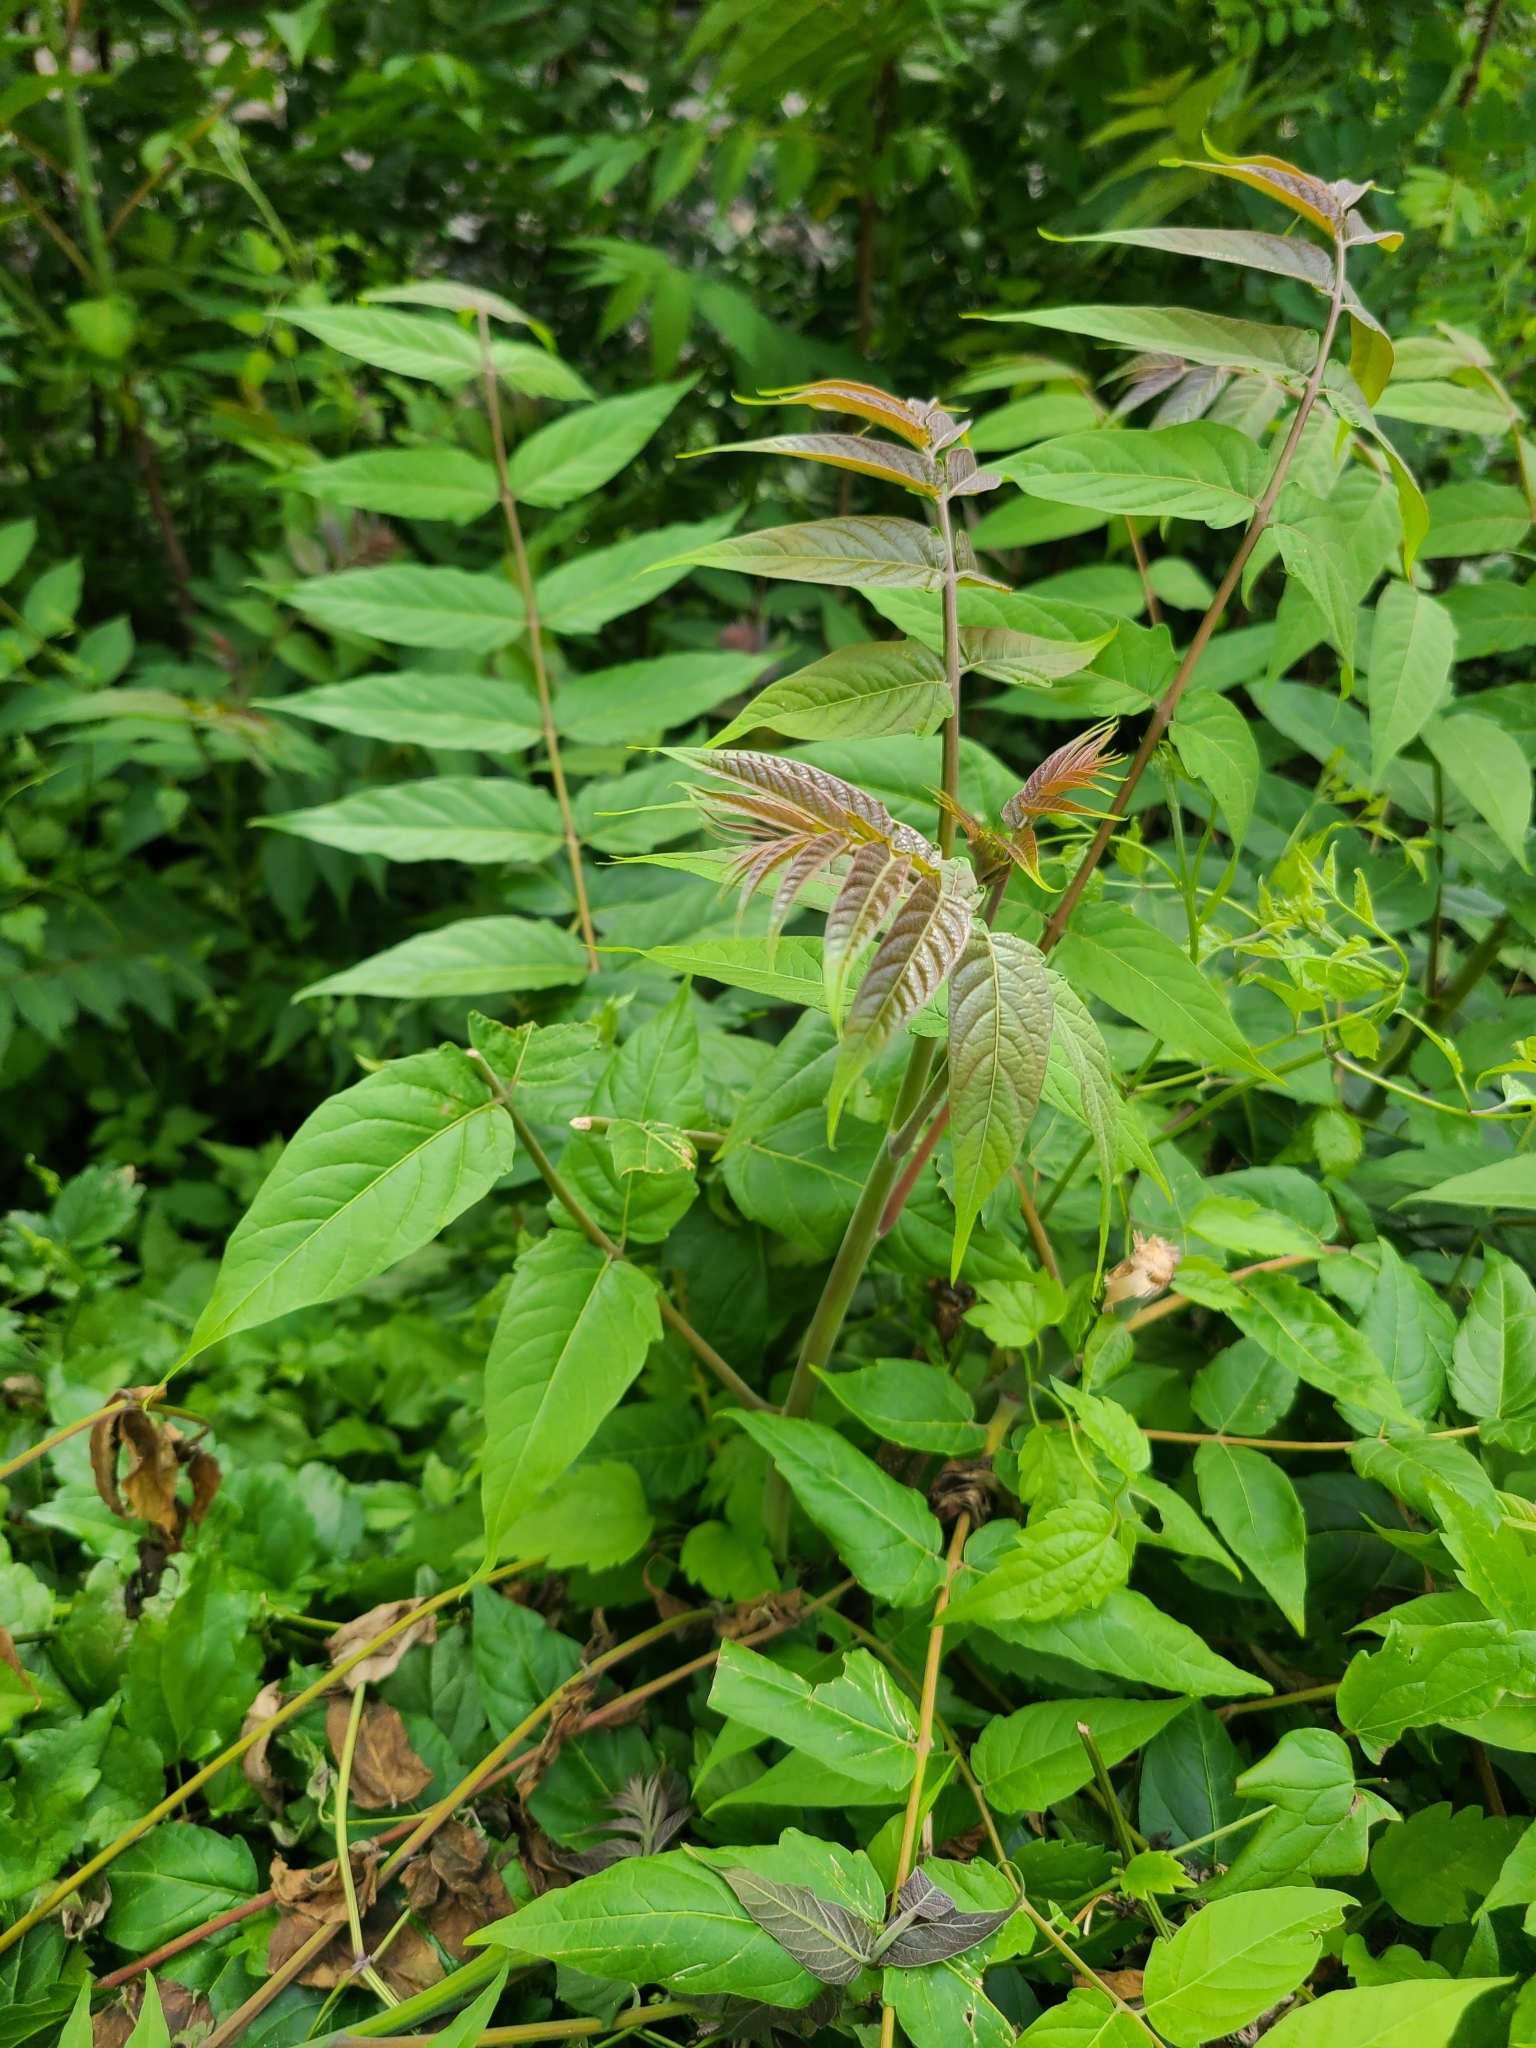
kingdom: Plantae
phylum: Tracheophyta
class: Magnoliopsida
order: Sapindales
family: Simaroubaceae
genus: Ailanthus
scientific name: Ailanthus altissima
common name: Tree-of-heaven
